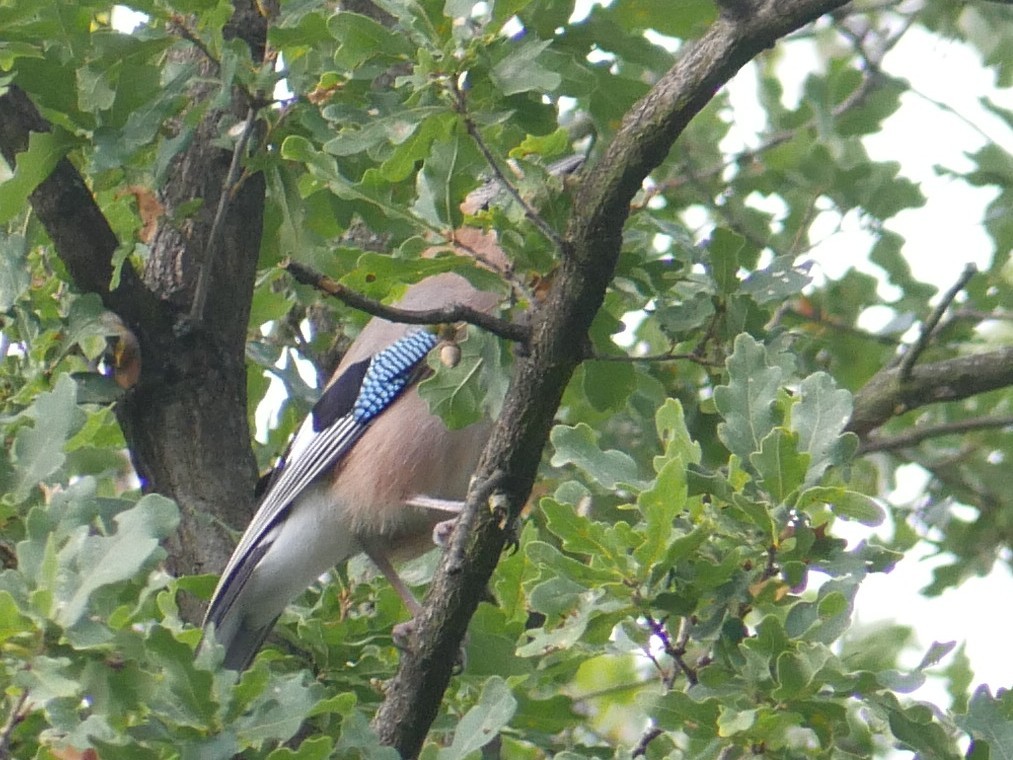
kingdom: Animalia
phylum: Chordata
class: Aves
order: Passeriformes
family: Corvidae
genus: Garrulus
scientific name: Garrulus glandarius
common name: Eurasian jay
